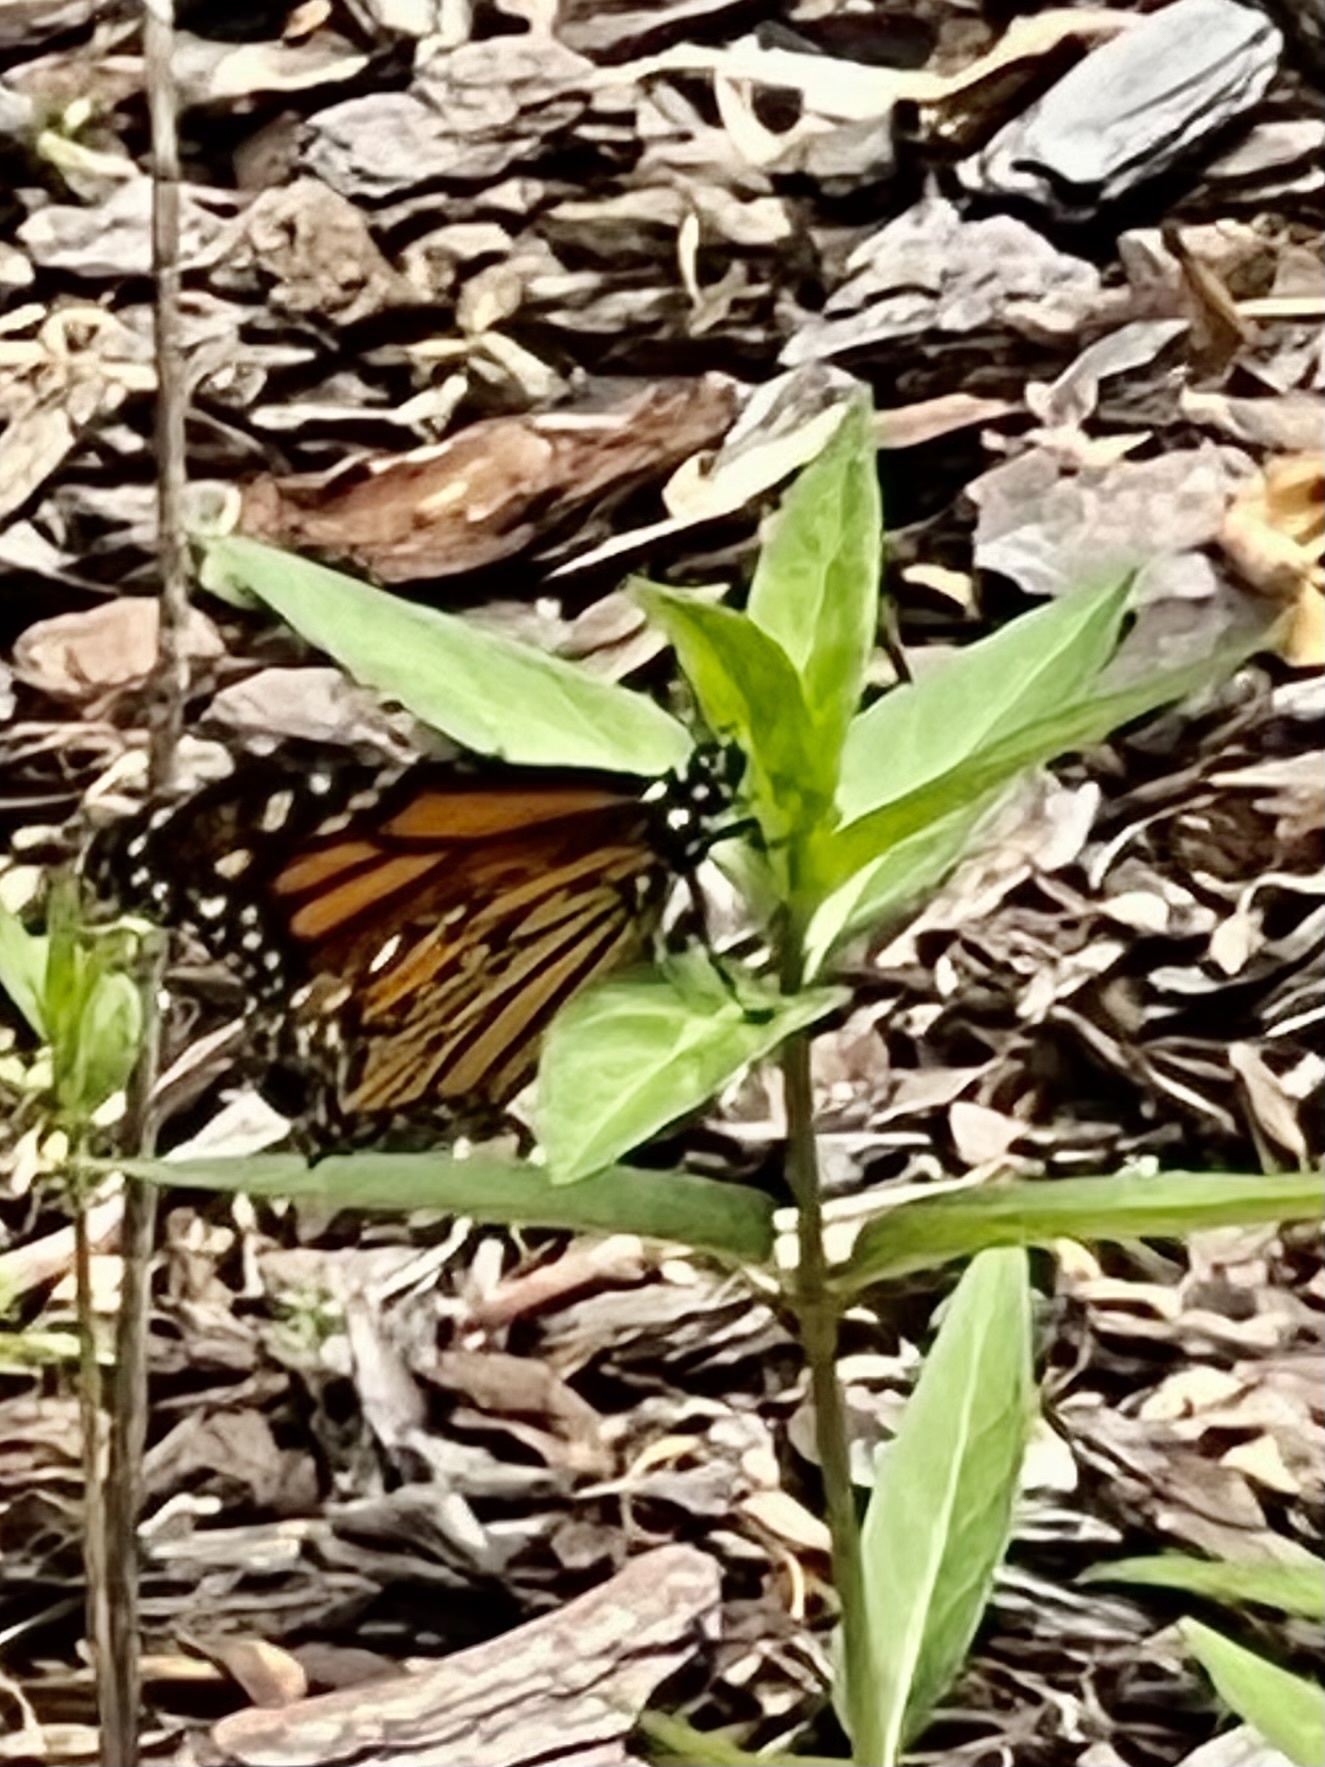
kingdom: Animalia
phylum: Arthropoda
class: Insecta
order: Lepidoptera
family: Nymphalidae
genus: Danaus
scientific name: Danaus plexippus
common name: Monarch
